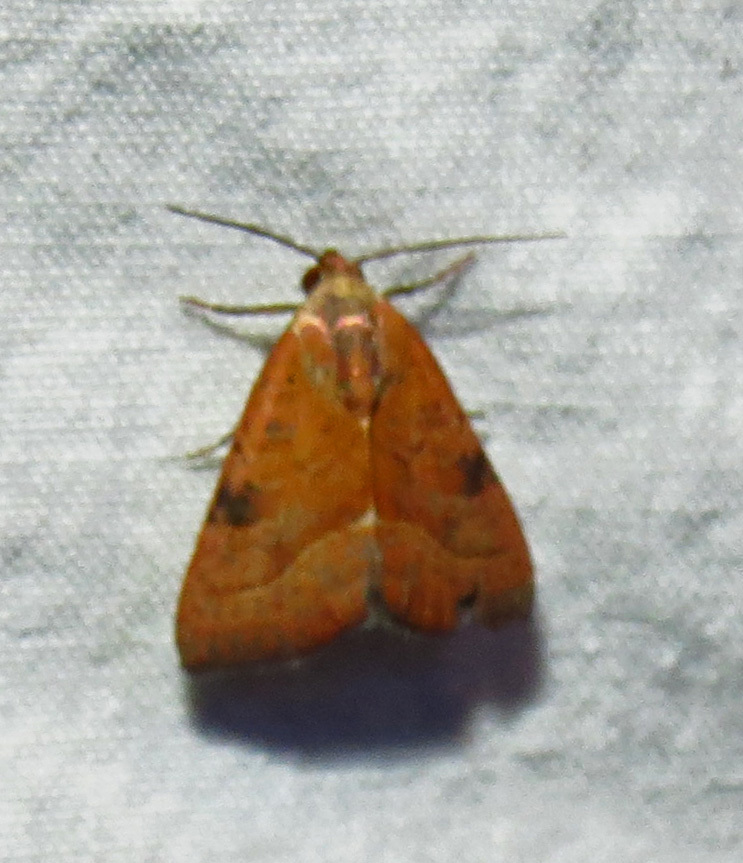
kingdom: Animalia
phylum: Arthropoda
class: Insecta
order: Lepidoptera
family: Noctuidae
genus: Galgula
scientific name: Galgula partita
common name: Wedgeling
